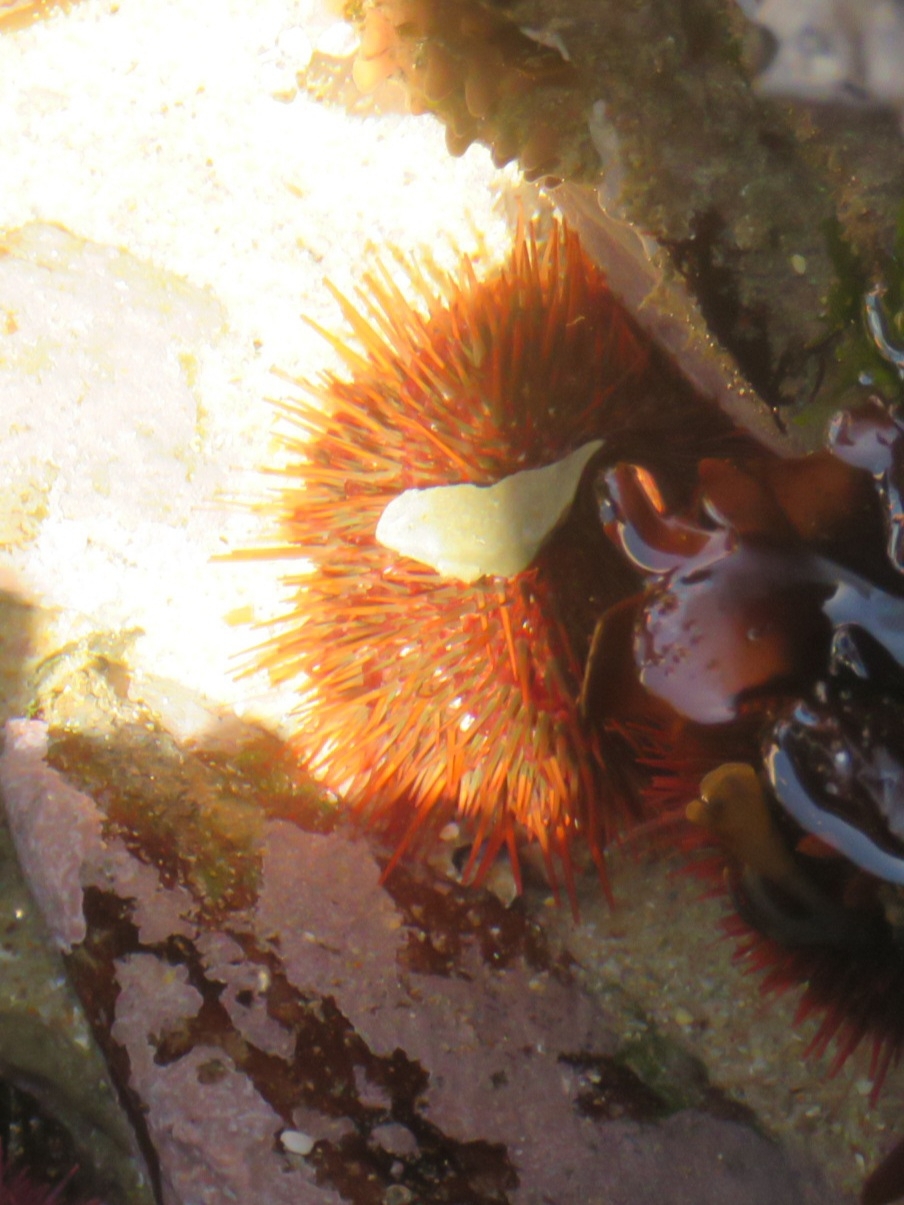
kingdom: Animalia
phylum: Echinodermata
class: Echinoidea
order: Camarodonta
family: Parechinidae
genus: Parechinus
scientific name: Parechinus angulosus
